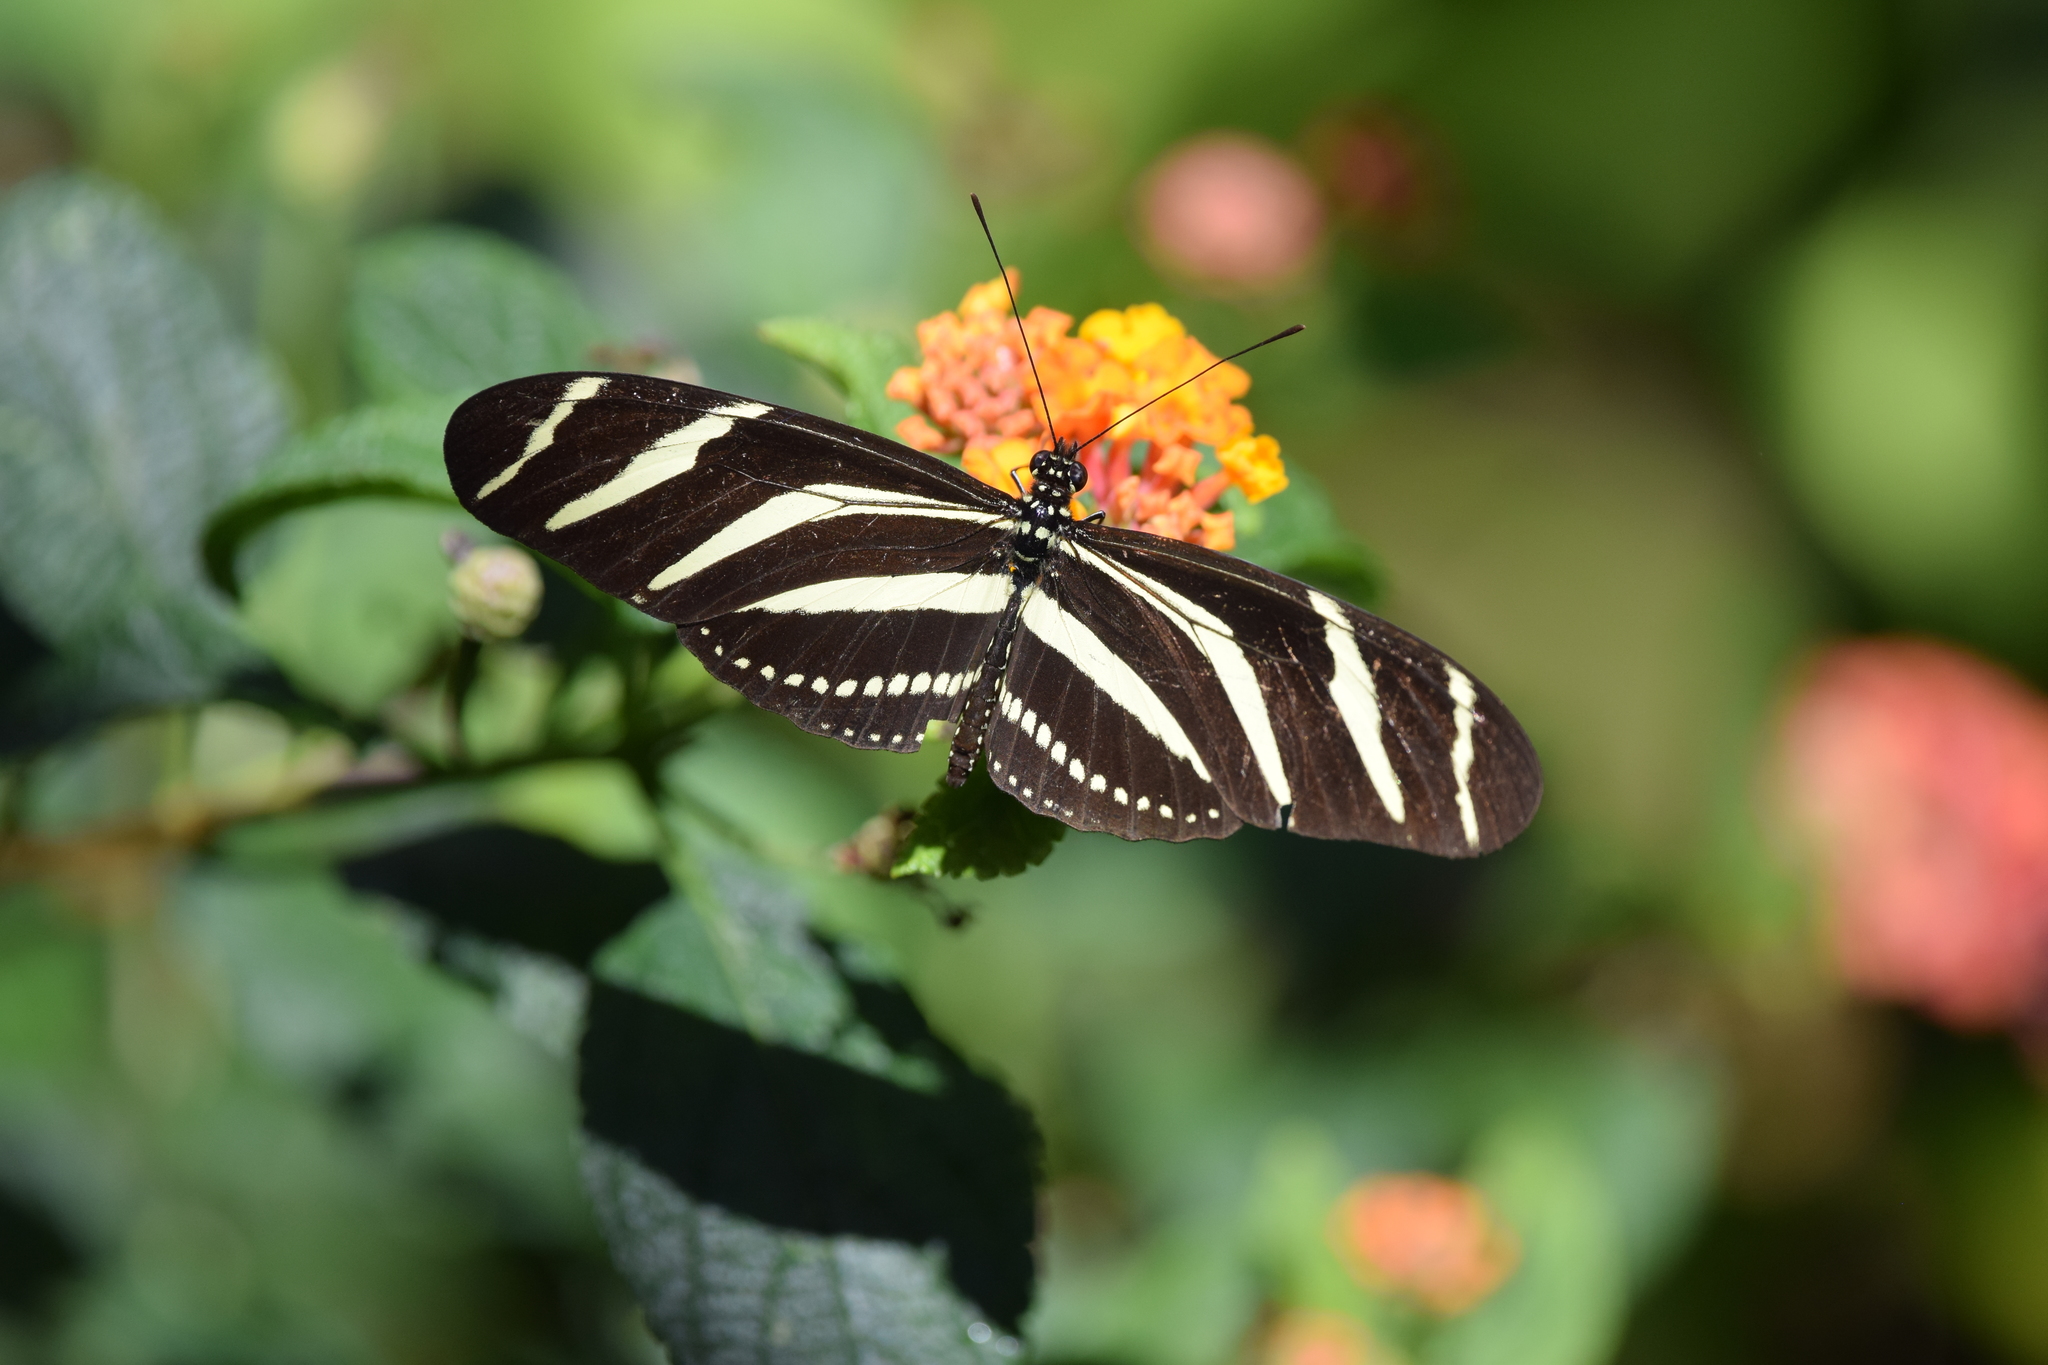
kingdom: Animalia
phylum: Arthropoda
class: Insecta
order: Lepidoptera
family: Nymphalidae
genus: Heliconius
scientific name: Heliconius charithonia
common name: Zebra long wing
